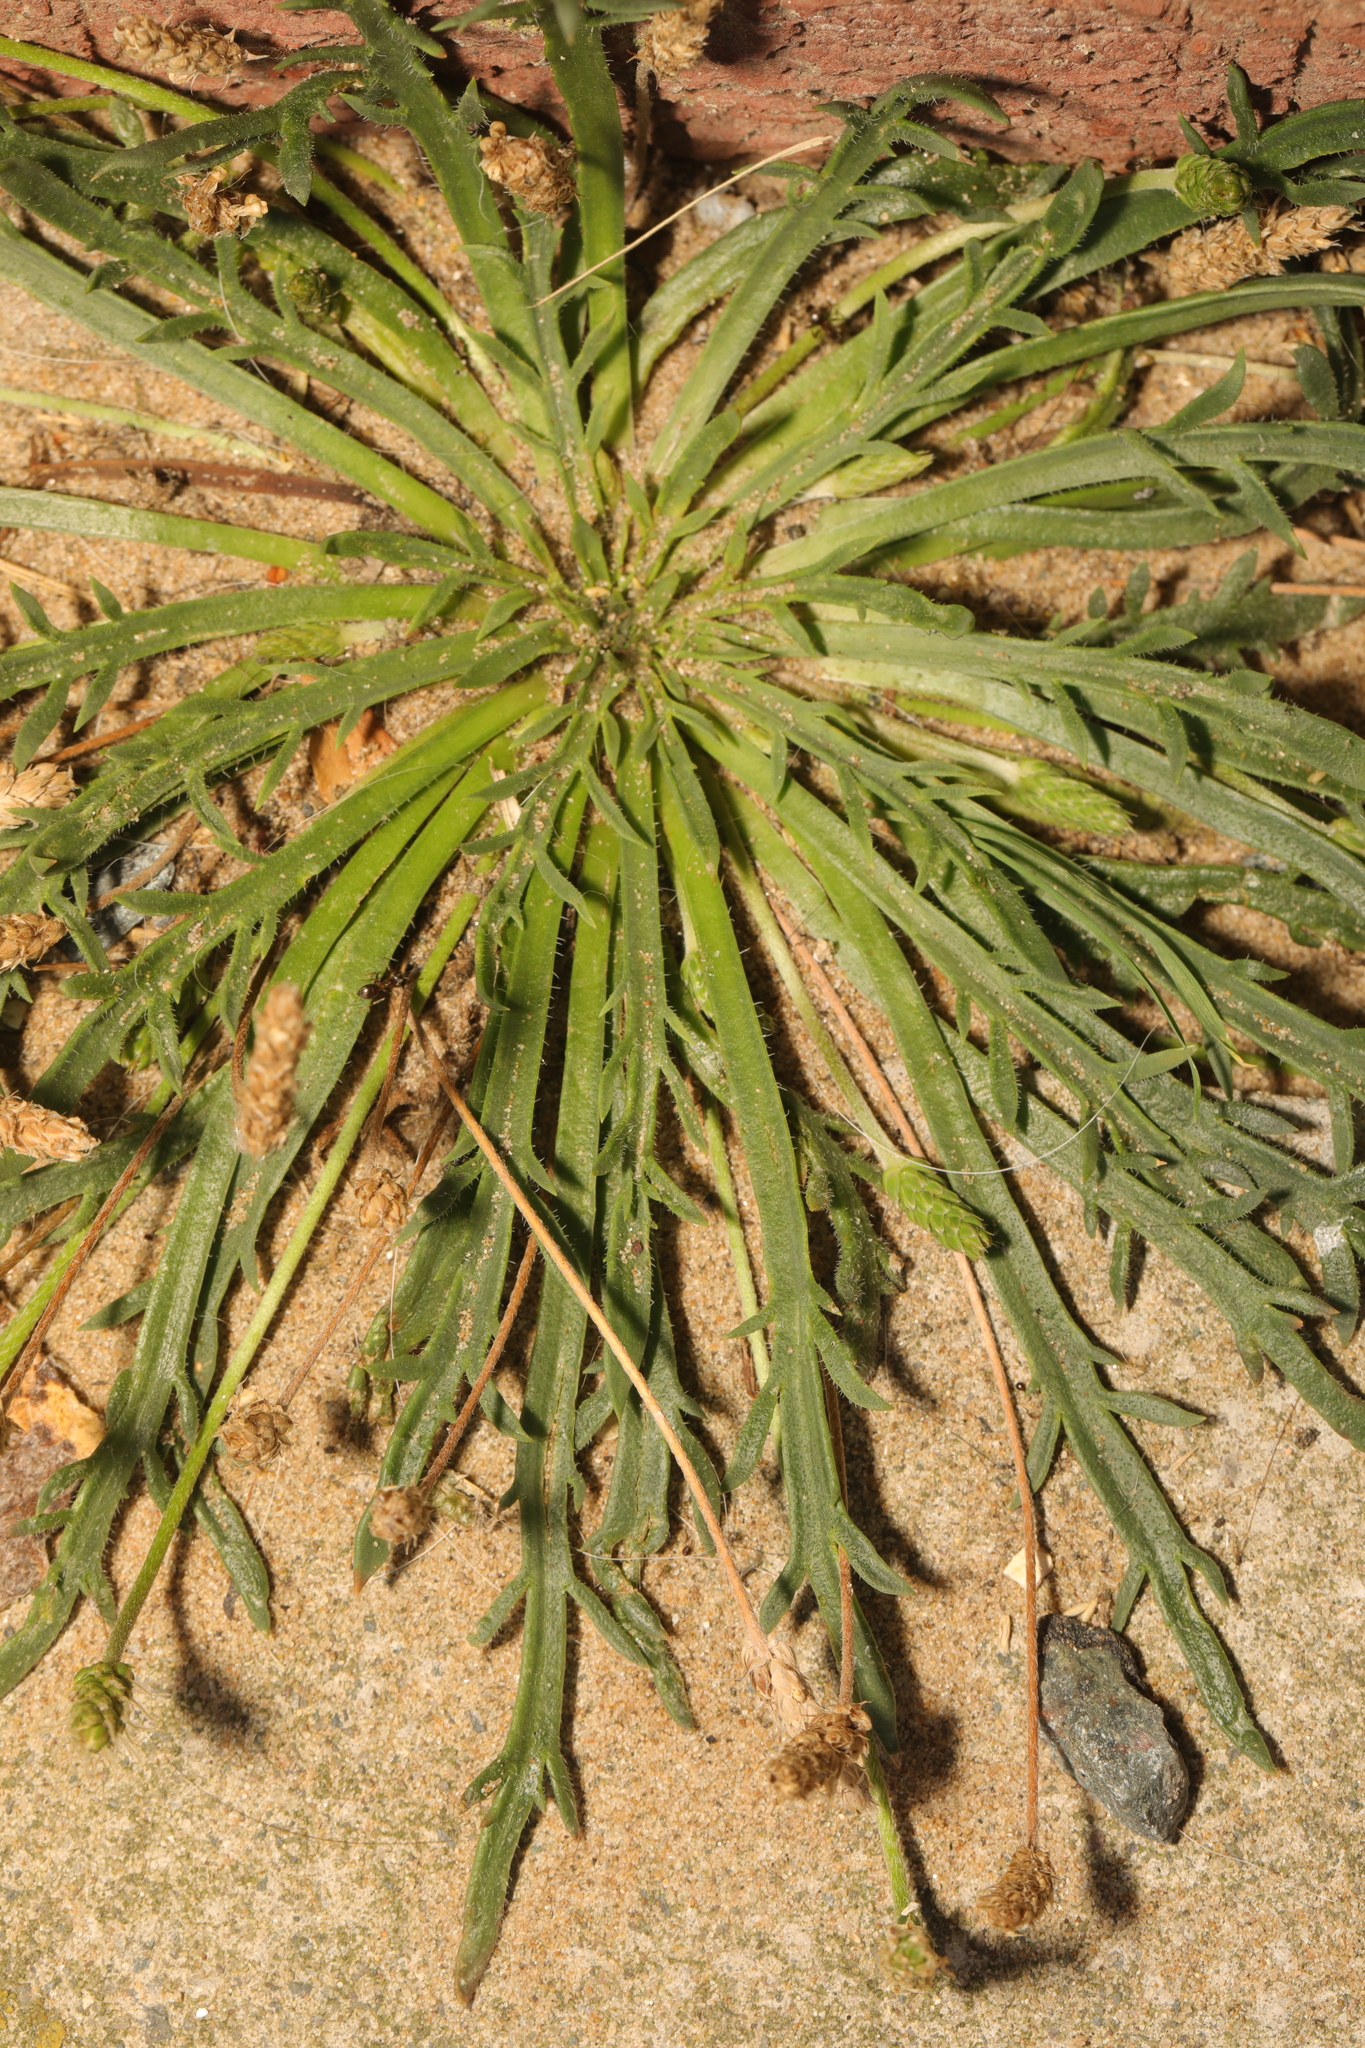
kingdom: Plantae
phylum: Tracheophyta
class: Magnoliopsida
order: Lamiales
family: Plantaginaceae
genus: Plantago
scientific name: Plantago coronopus
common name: Buck's-horn plantain
